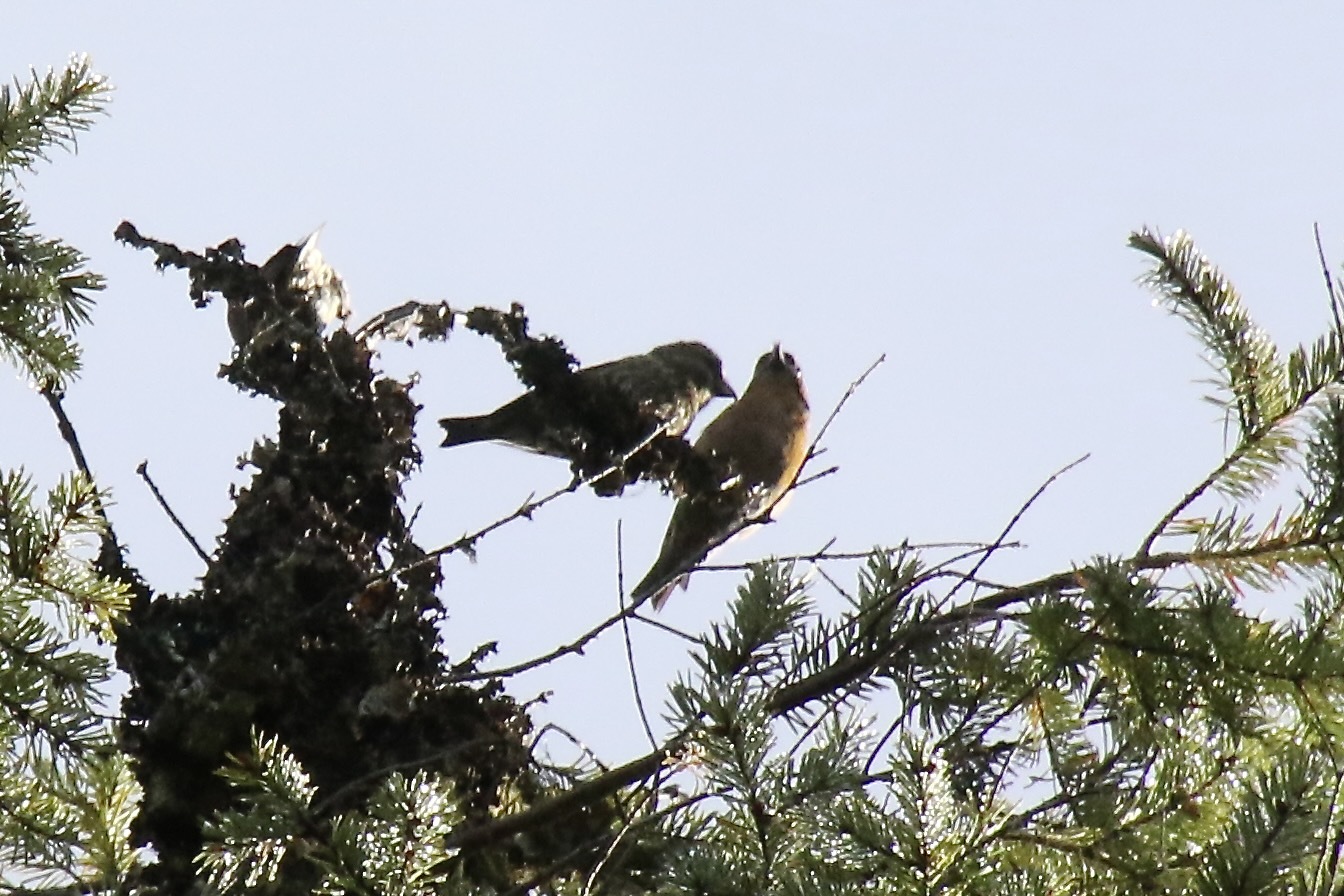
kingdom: Animalia
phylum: Chordata
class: Aves
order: Passeriformes
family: Fringillidae
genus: Loxia
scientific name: Loxia curvirostra
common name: Red crossbill
